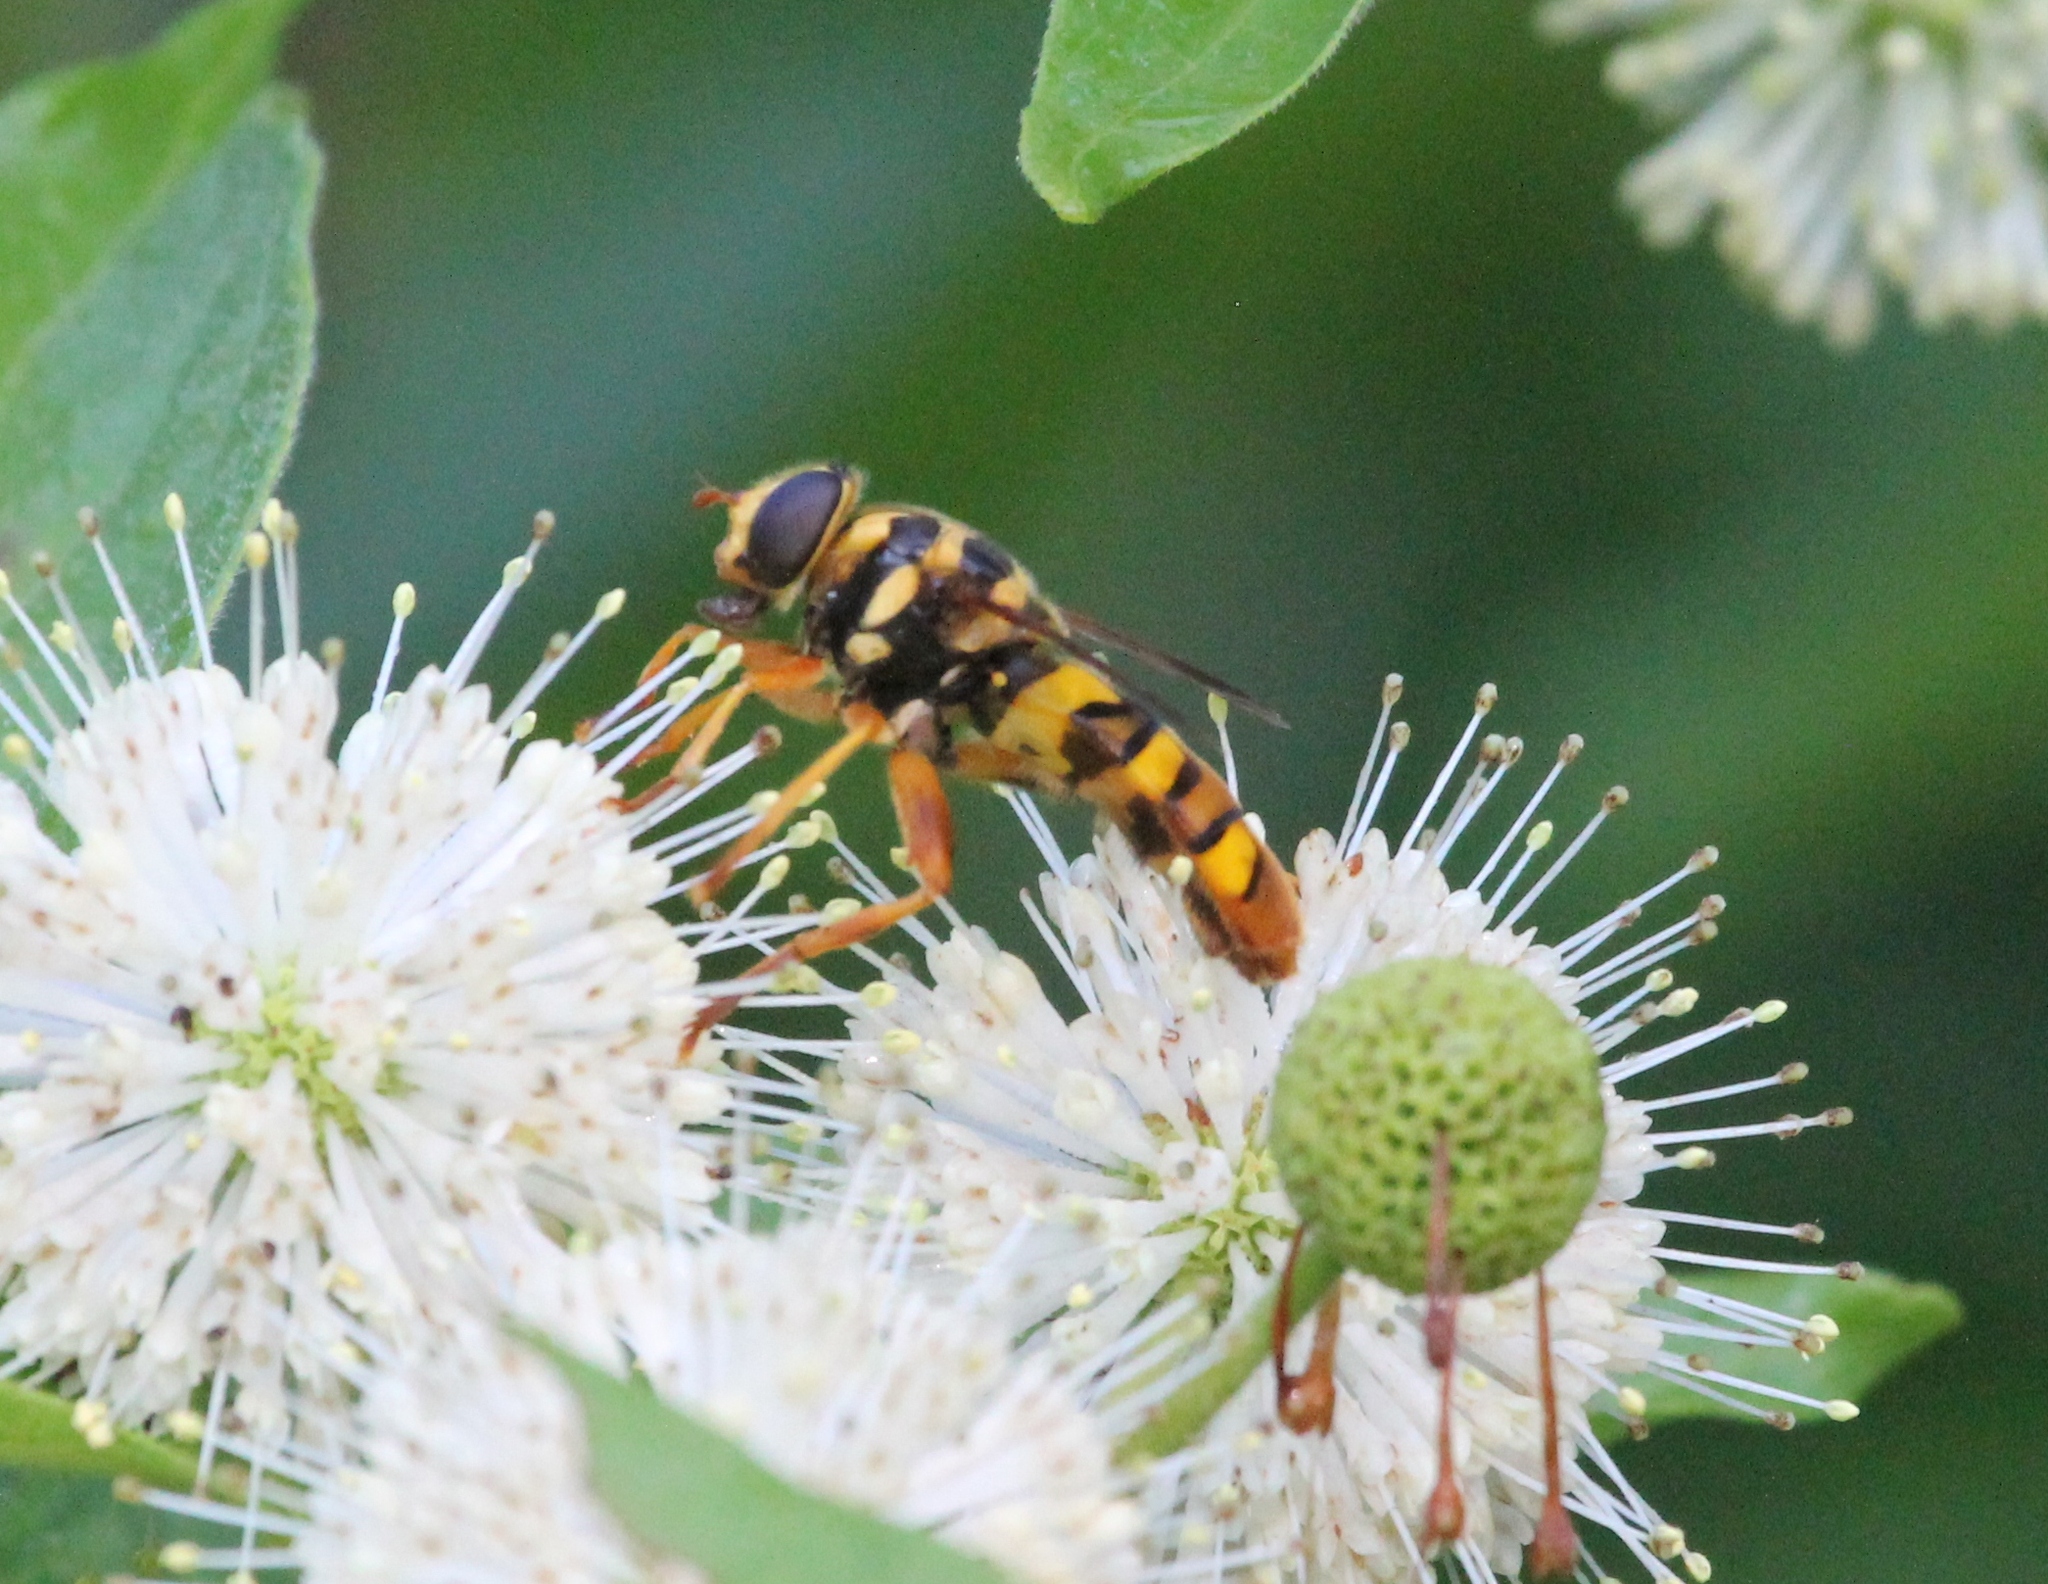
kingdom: Animalia
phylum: Arthropoda
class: Insecta
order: Diptera
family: Syrphidae
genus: Milesia
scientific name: Milesia virginiensis
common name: Virginia giant
